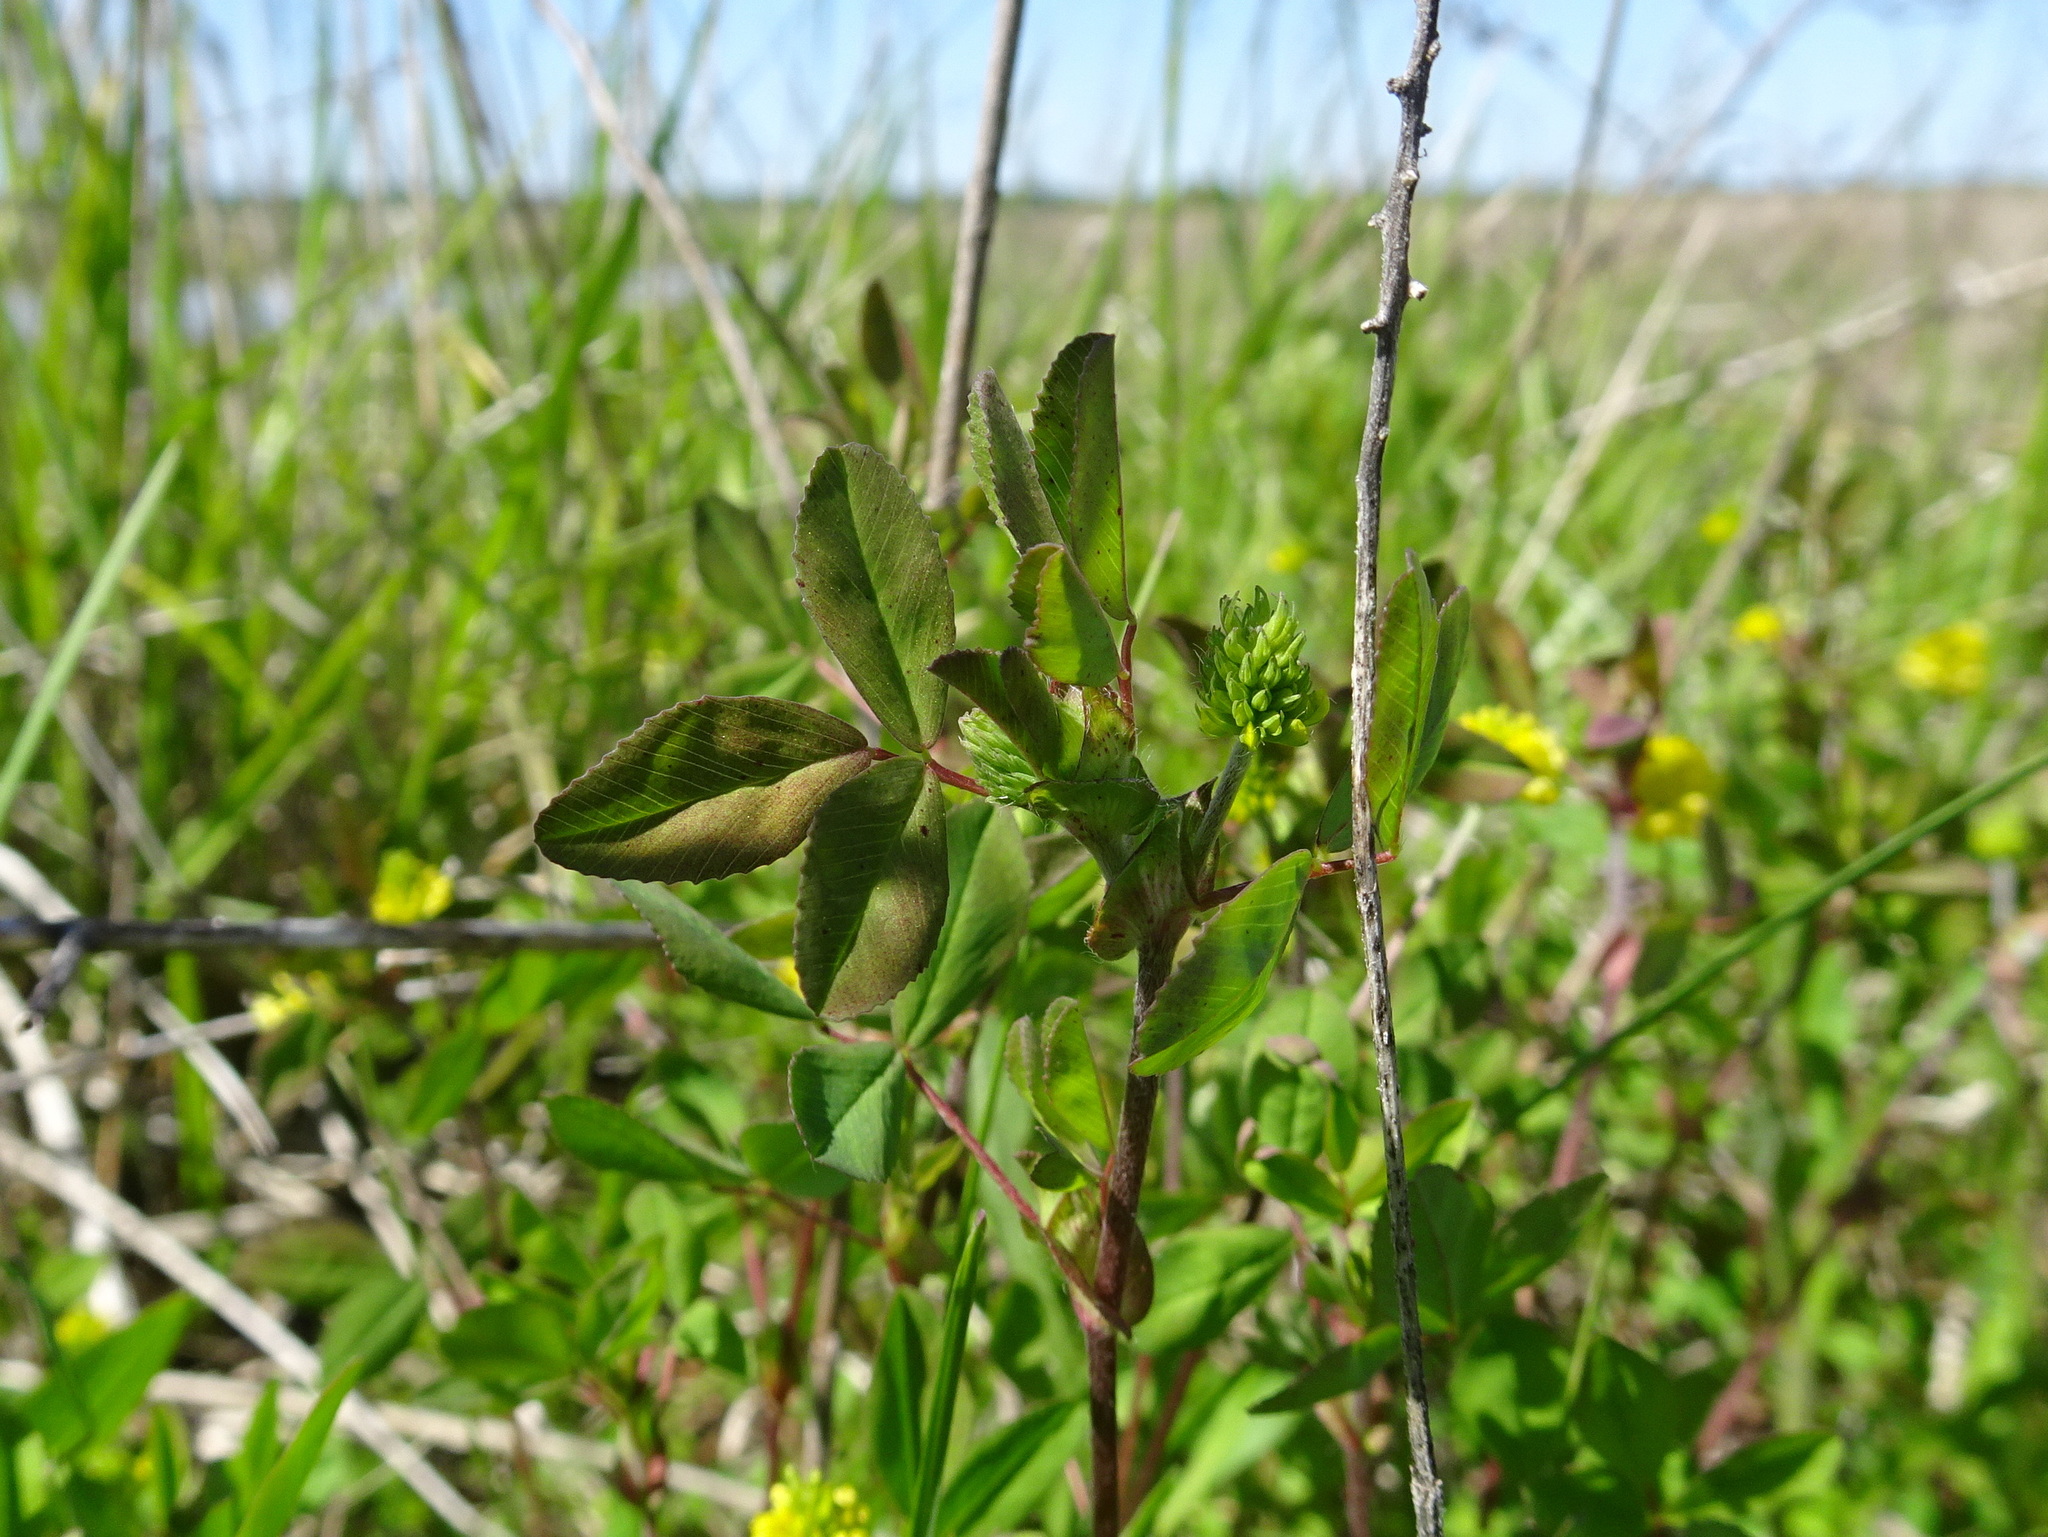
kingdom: Plantae
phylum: Tracheophyta
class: Magnoliopsida
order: Fabales
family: Fabaceae
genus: Trifolium
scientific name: Trifolium campestre
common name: Field clover
